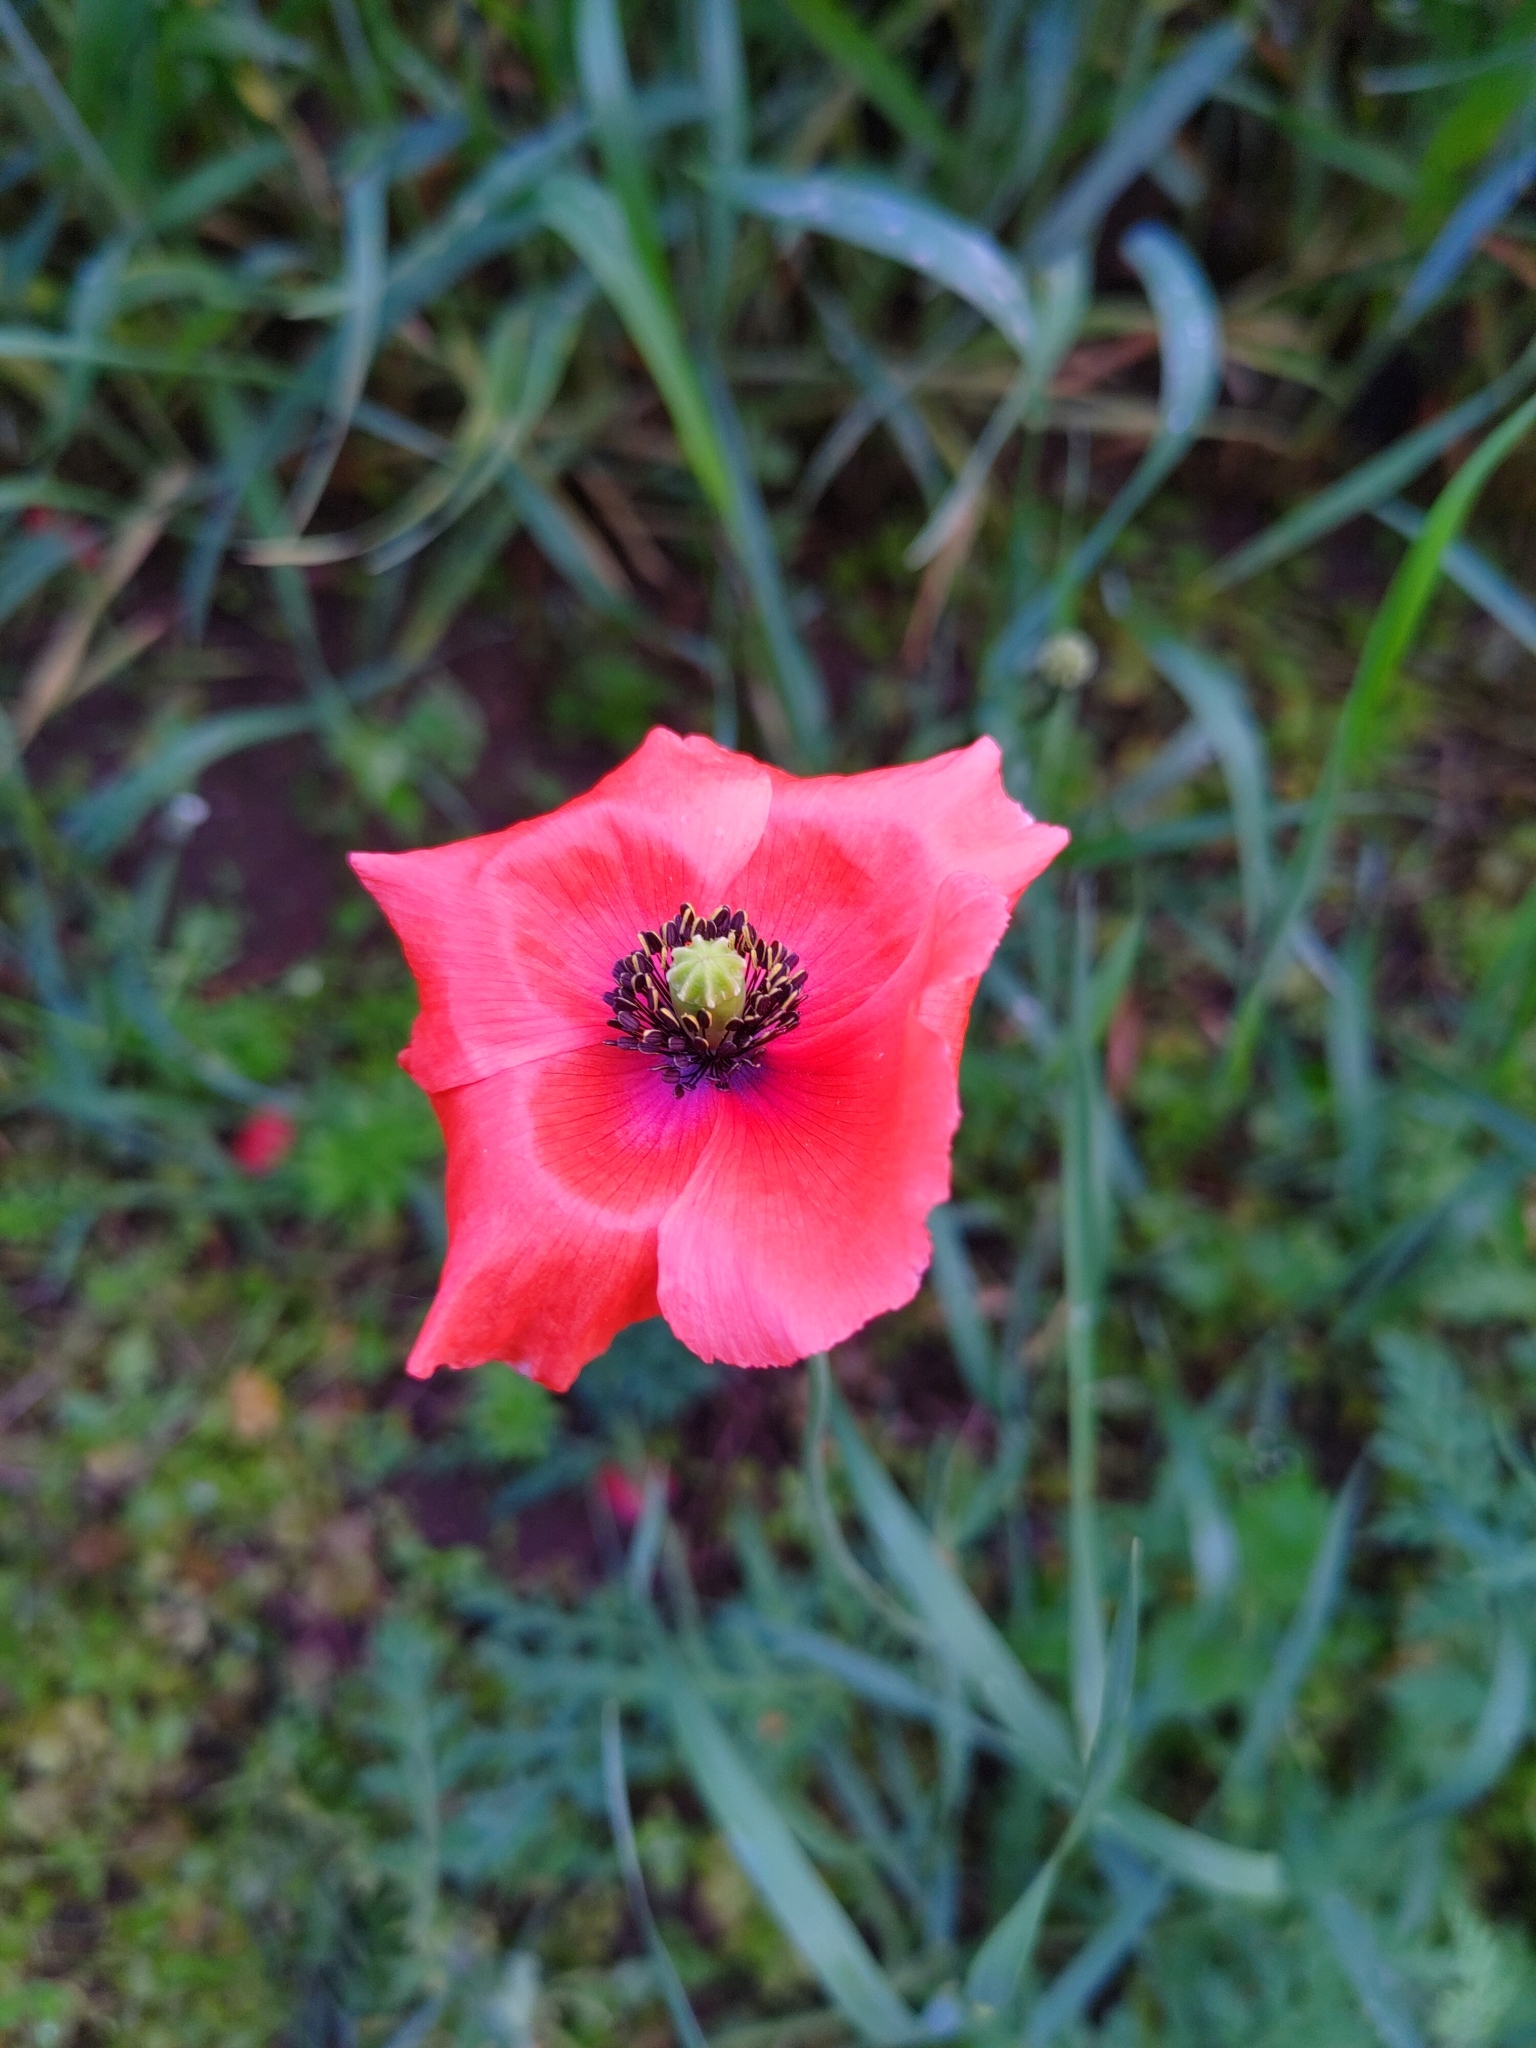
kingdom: Plantae
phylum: Tracheophyta
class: Magnoliopsida
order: Ranunculales
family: Papaveraceae
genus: Papaver
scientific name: Papaver rhoeas
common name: Corn poppy
